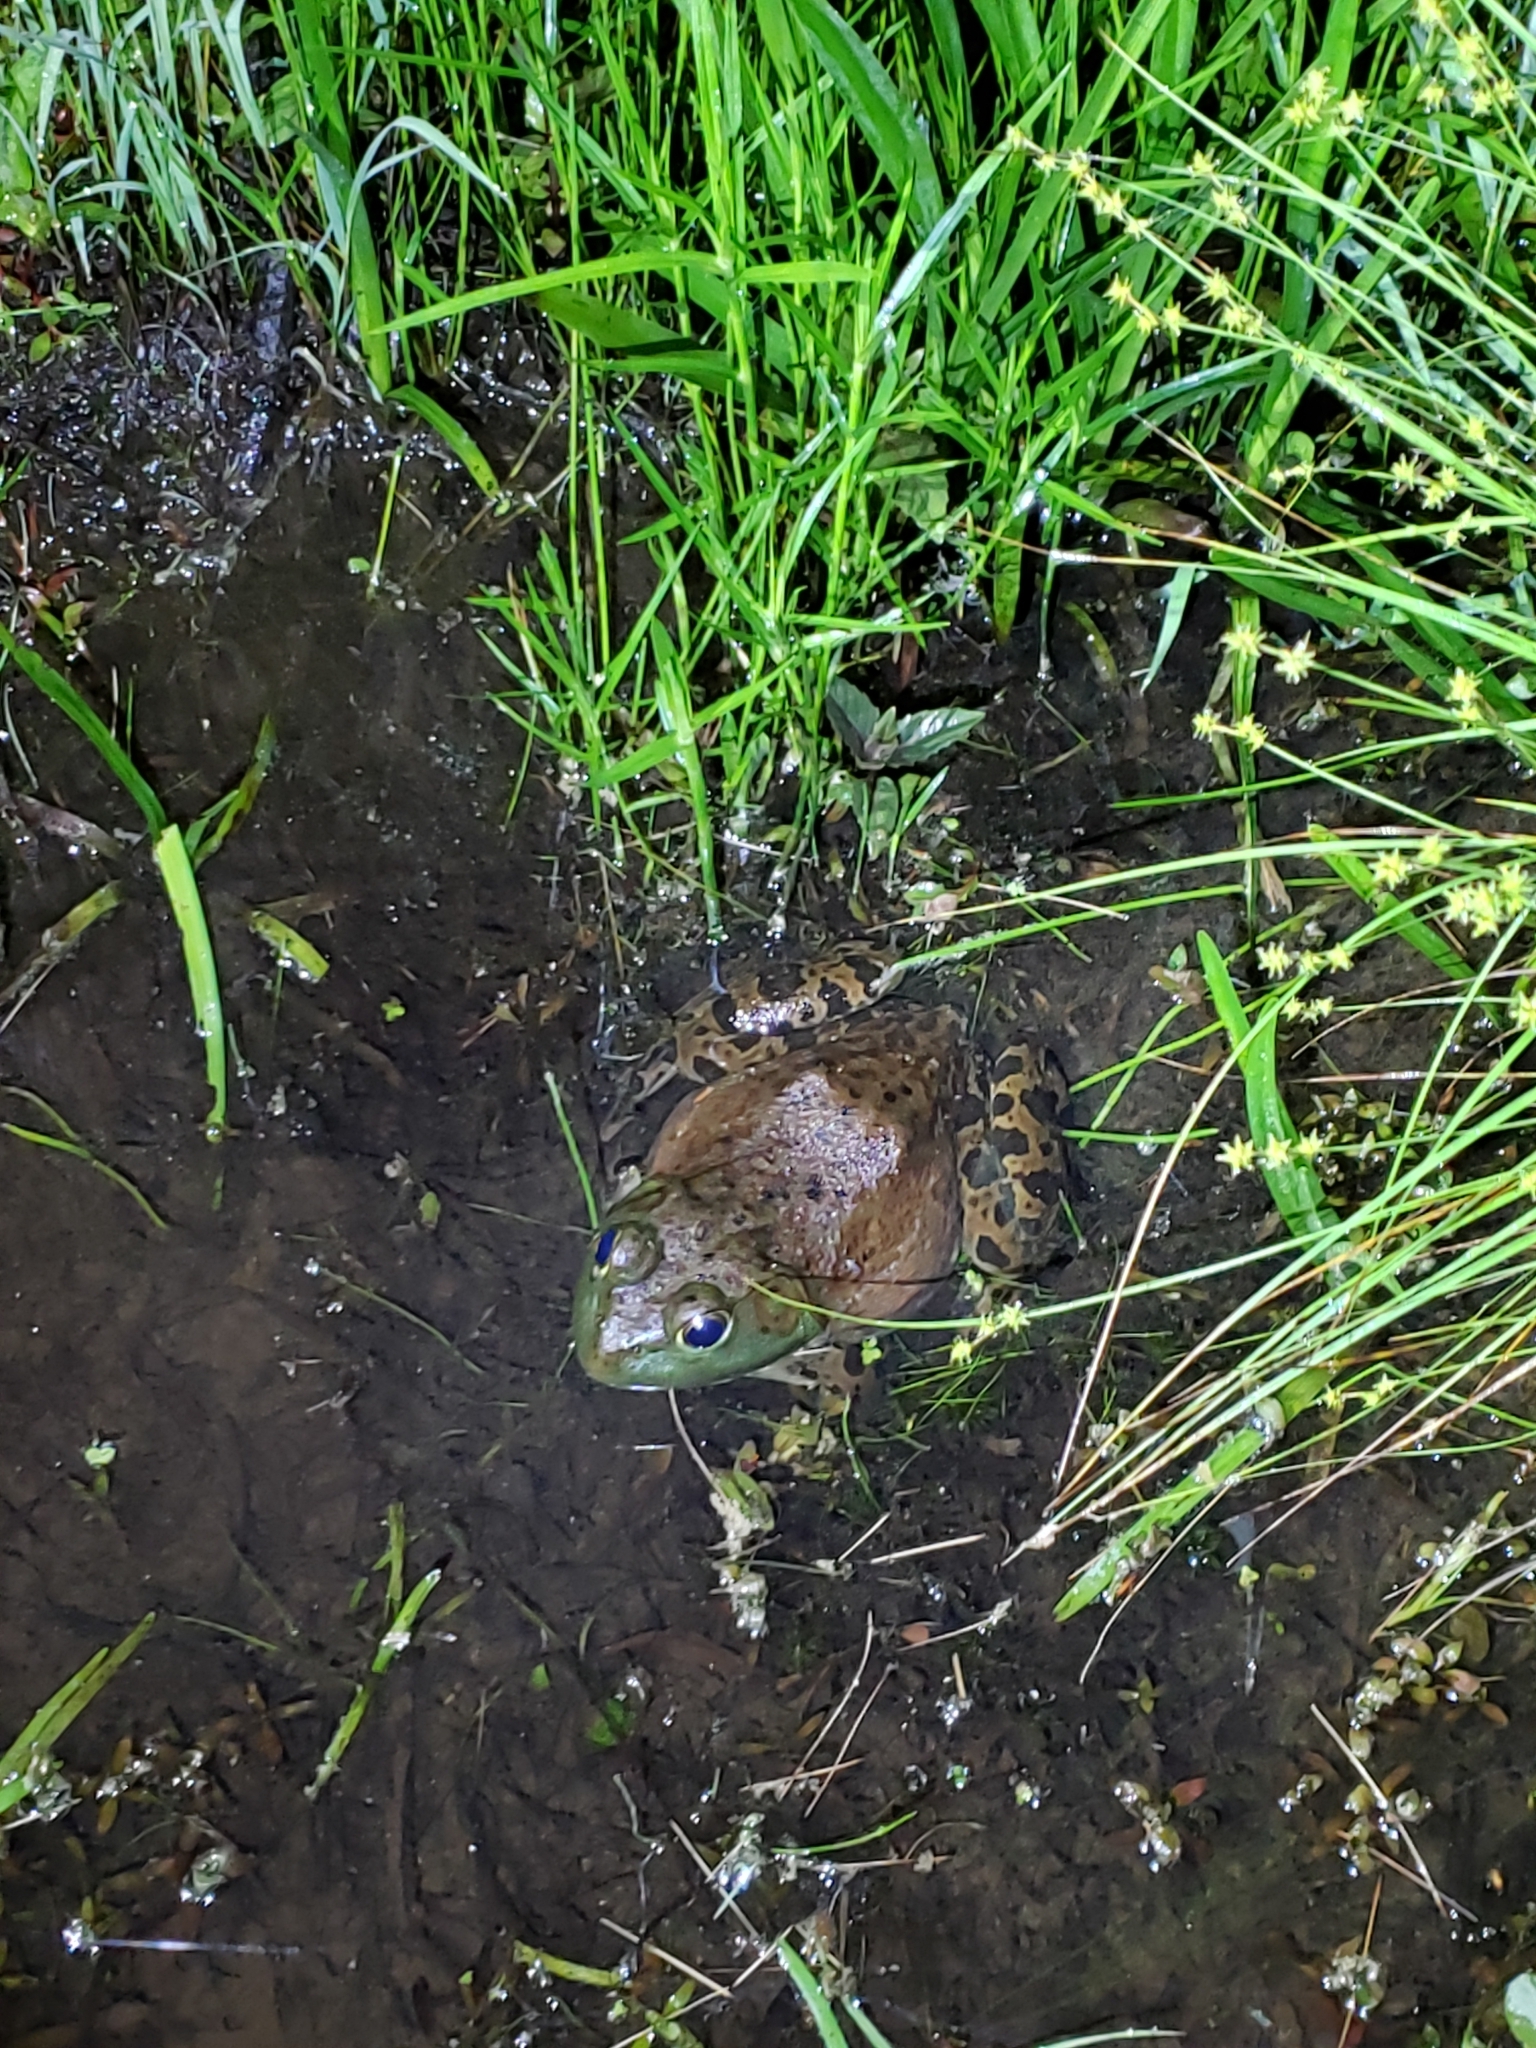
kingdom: Animalia
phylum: Chordata
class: Amphibia
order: Anura
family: Ranidae
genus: Lithobates
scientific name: Lithobates catesbeianus
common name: American bullfrog
